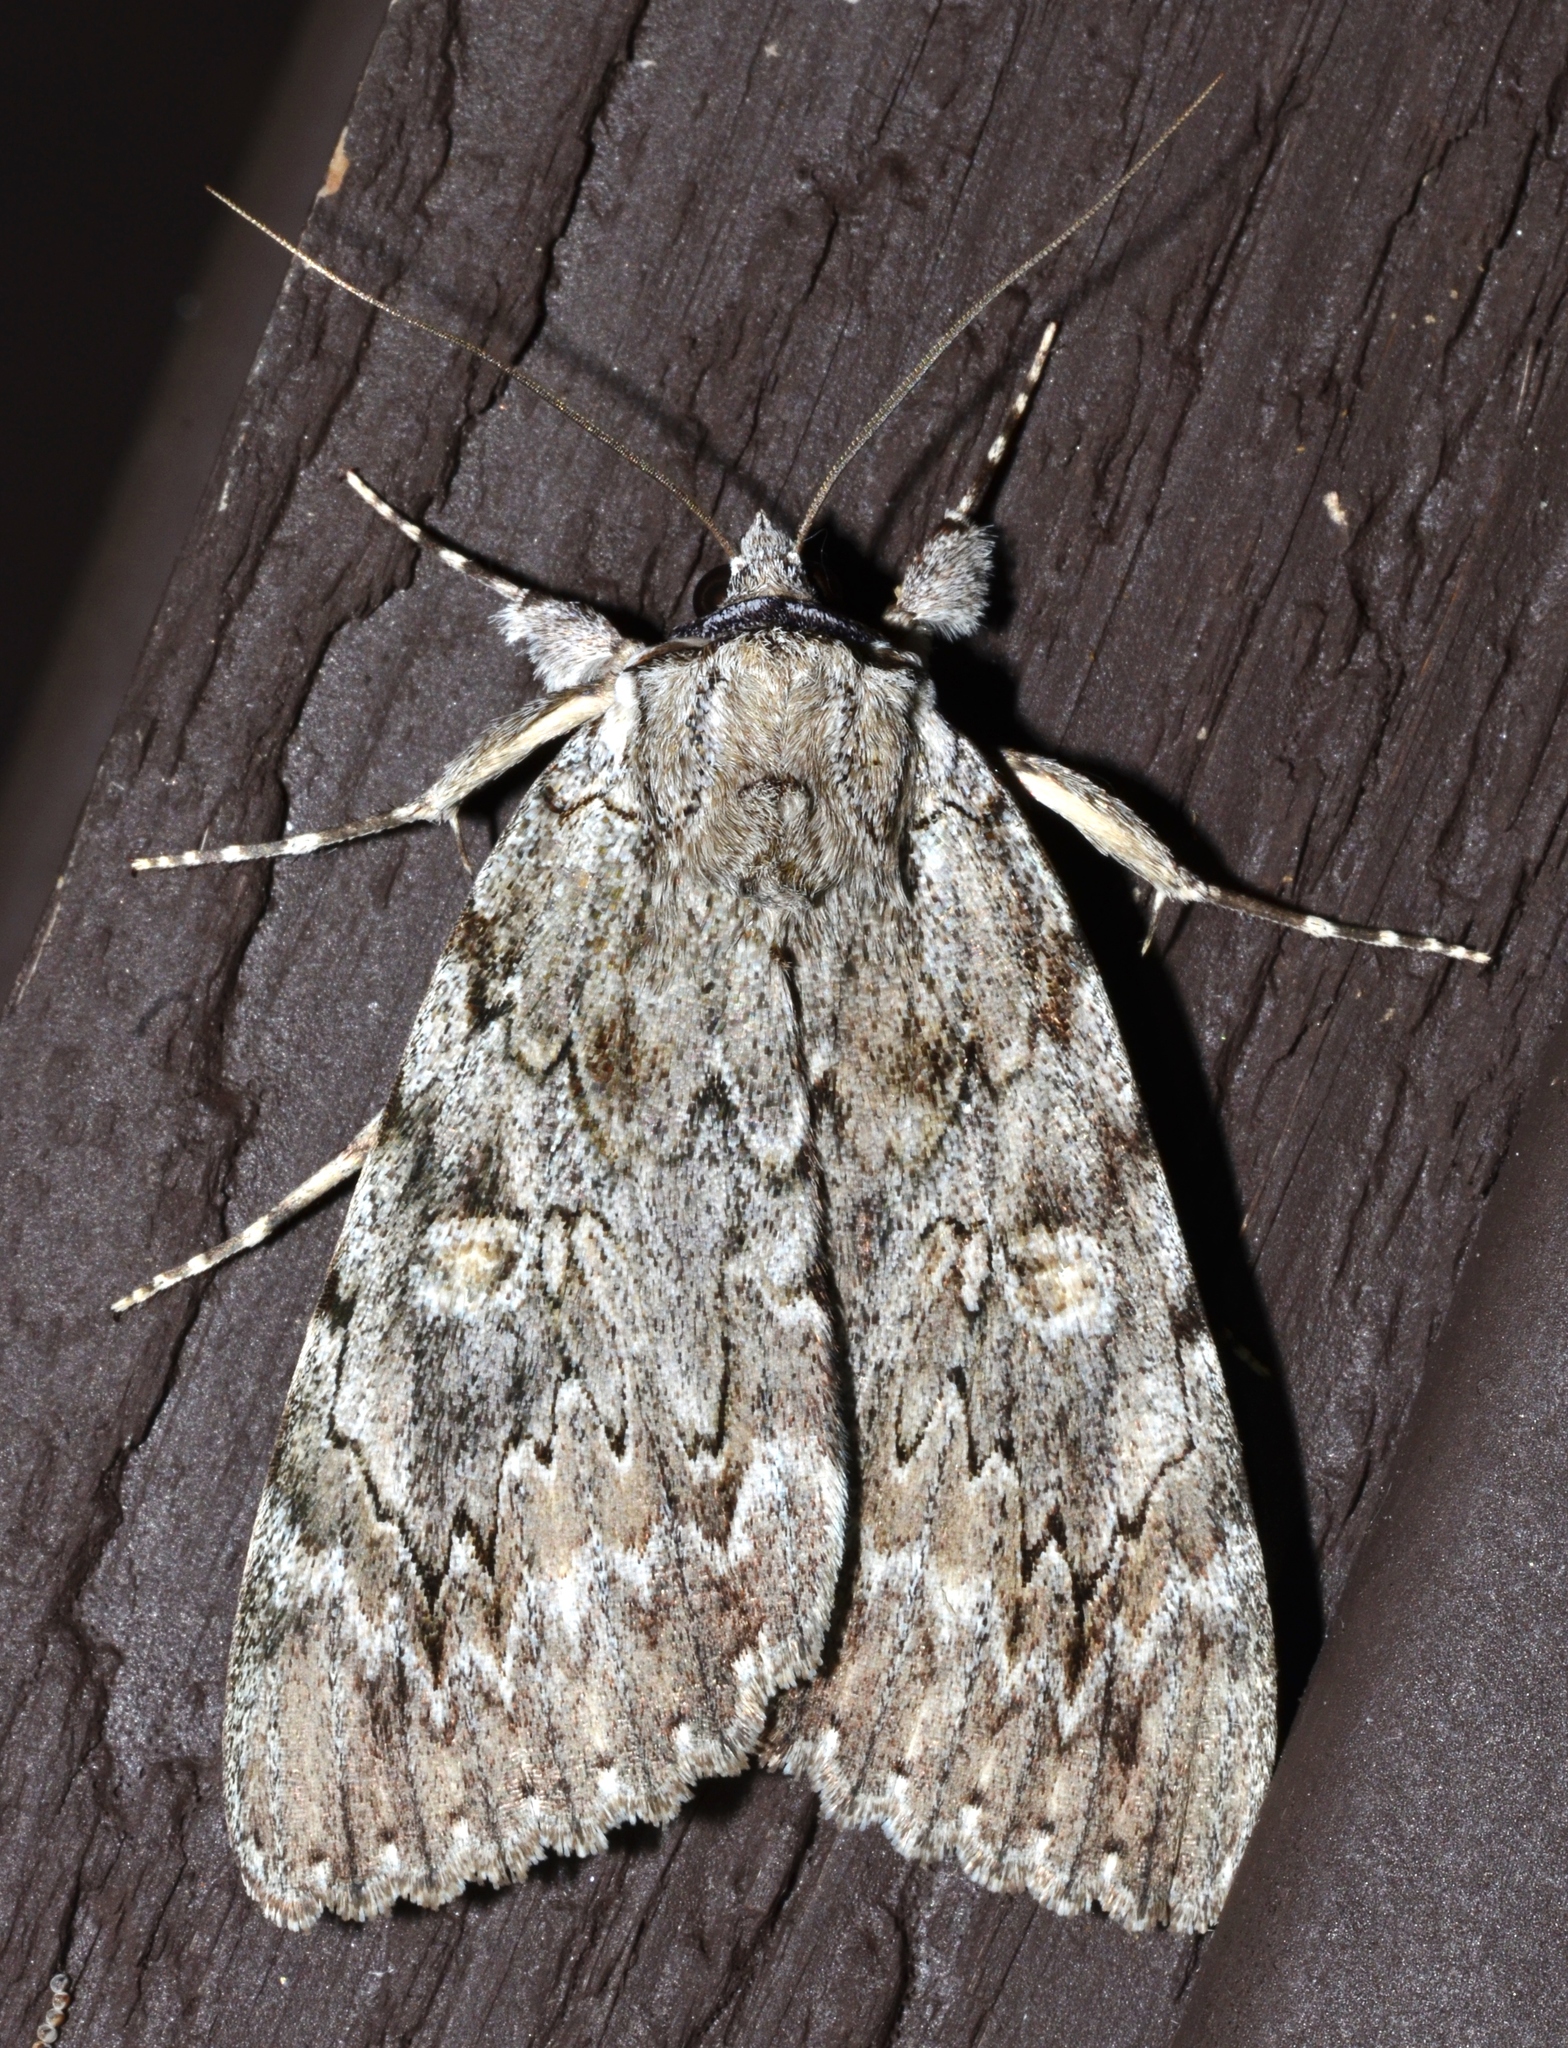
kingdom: Animalia
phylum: Arthropoda
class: Insecta
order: Lepidoptera
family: Erebidae
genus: Catocala
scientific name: Catocala robinsoni
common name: Robinson's underwing
